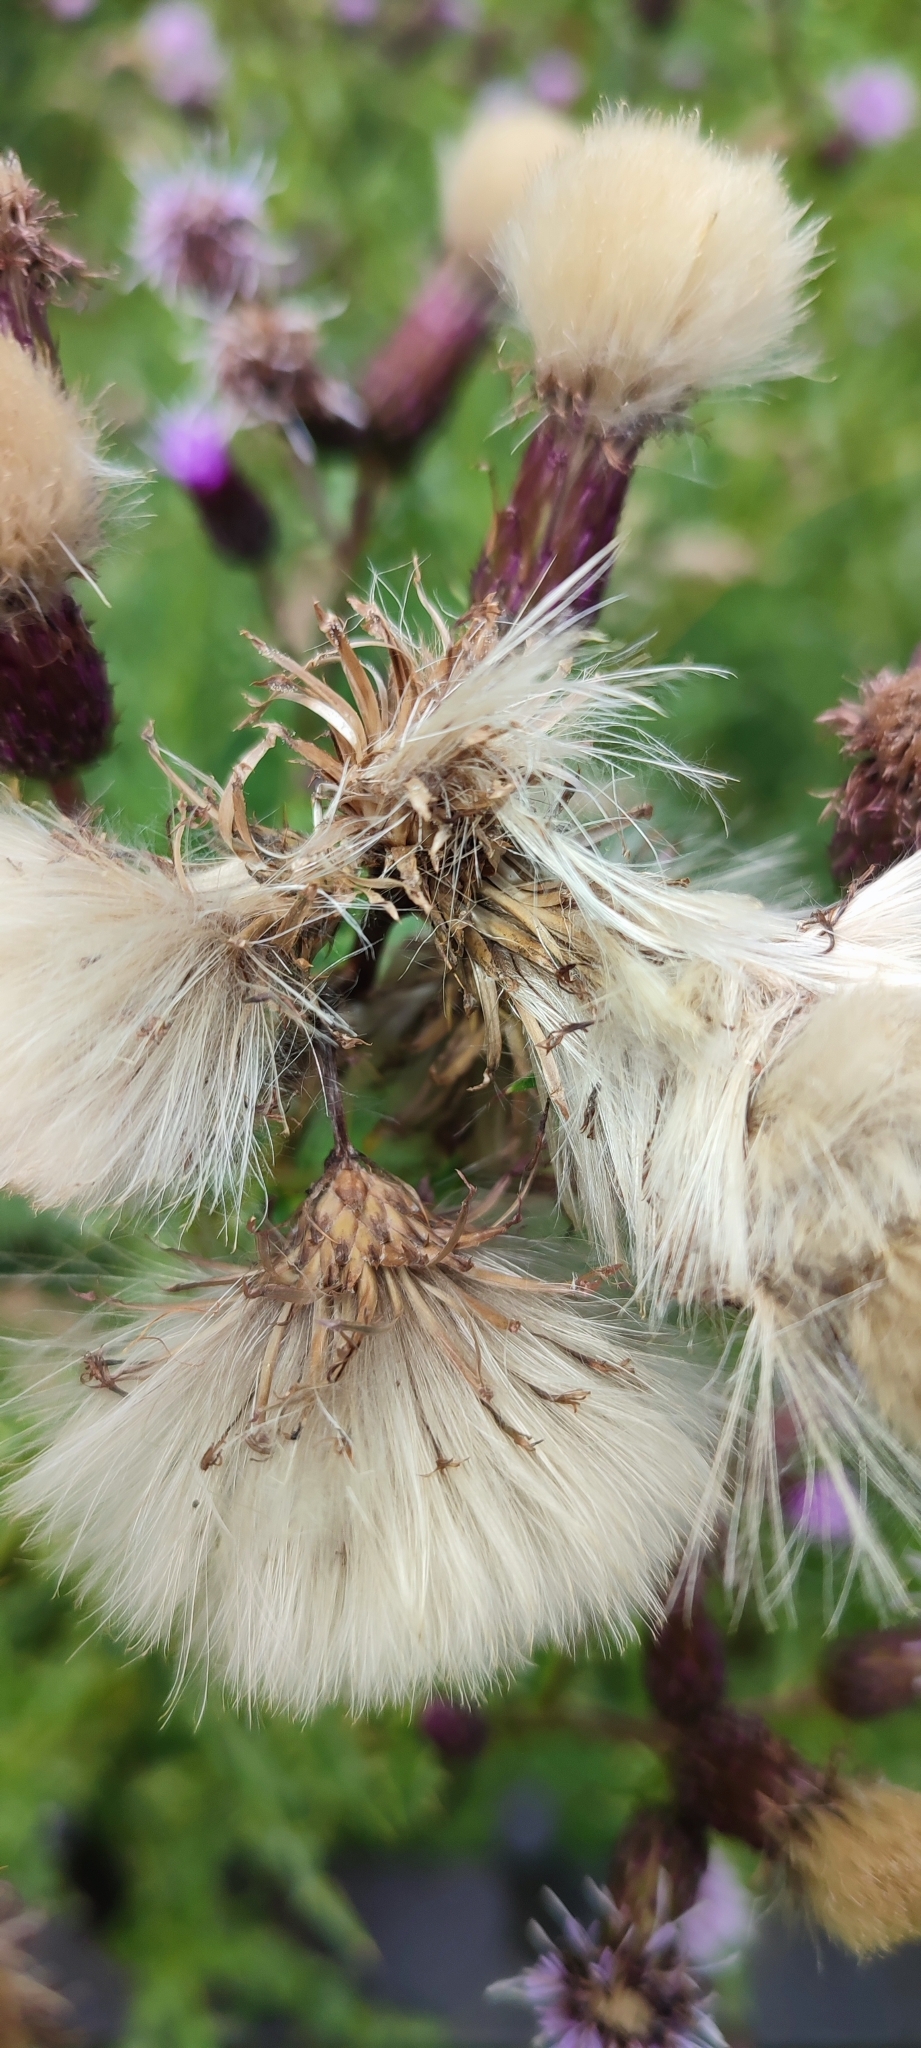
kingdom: Plantae
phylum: Tracheophyta
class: Magnoliopsida
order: Asterales
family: Asteraceae
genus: Cirsium
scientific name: Cirsium arvense
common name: Creeping thistle
